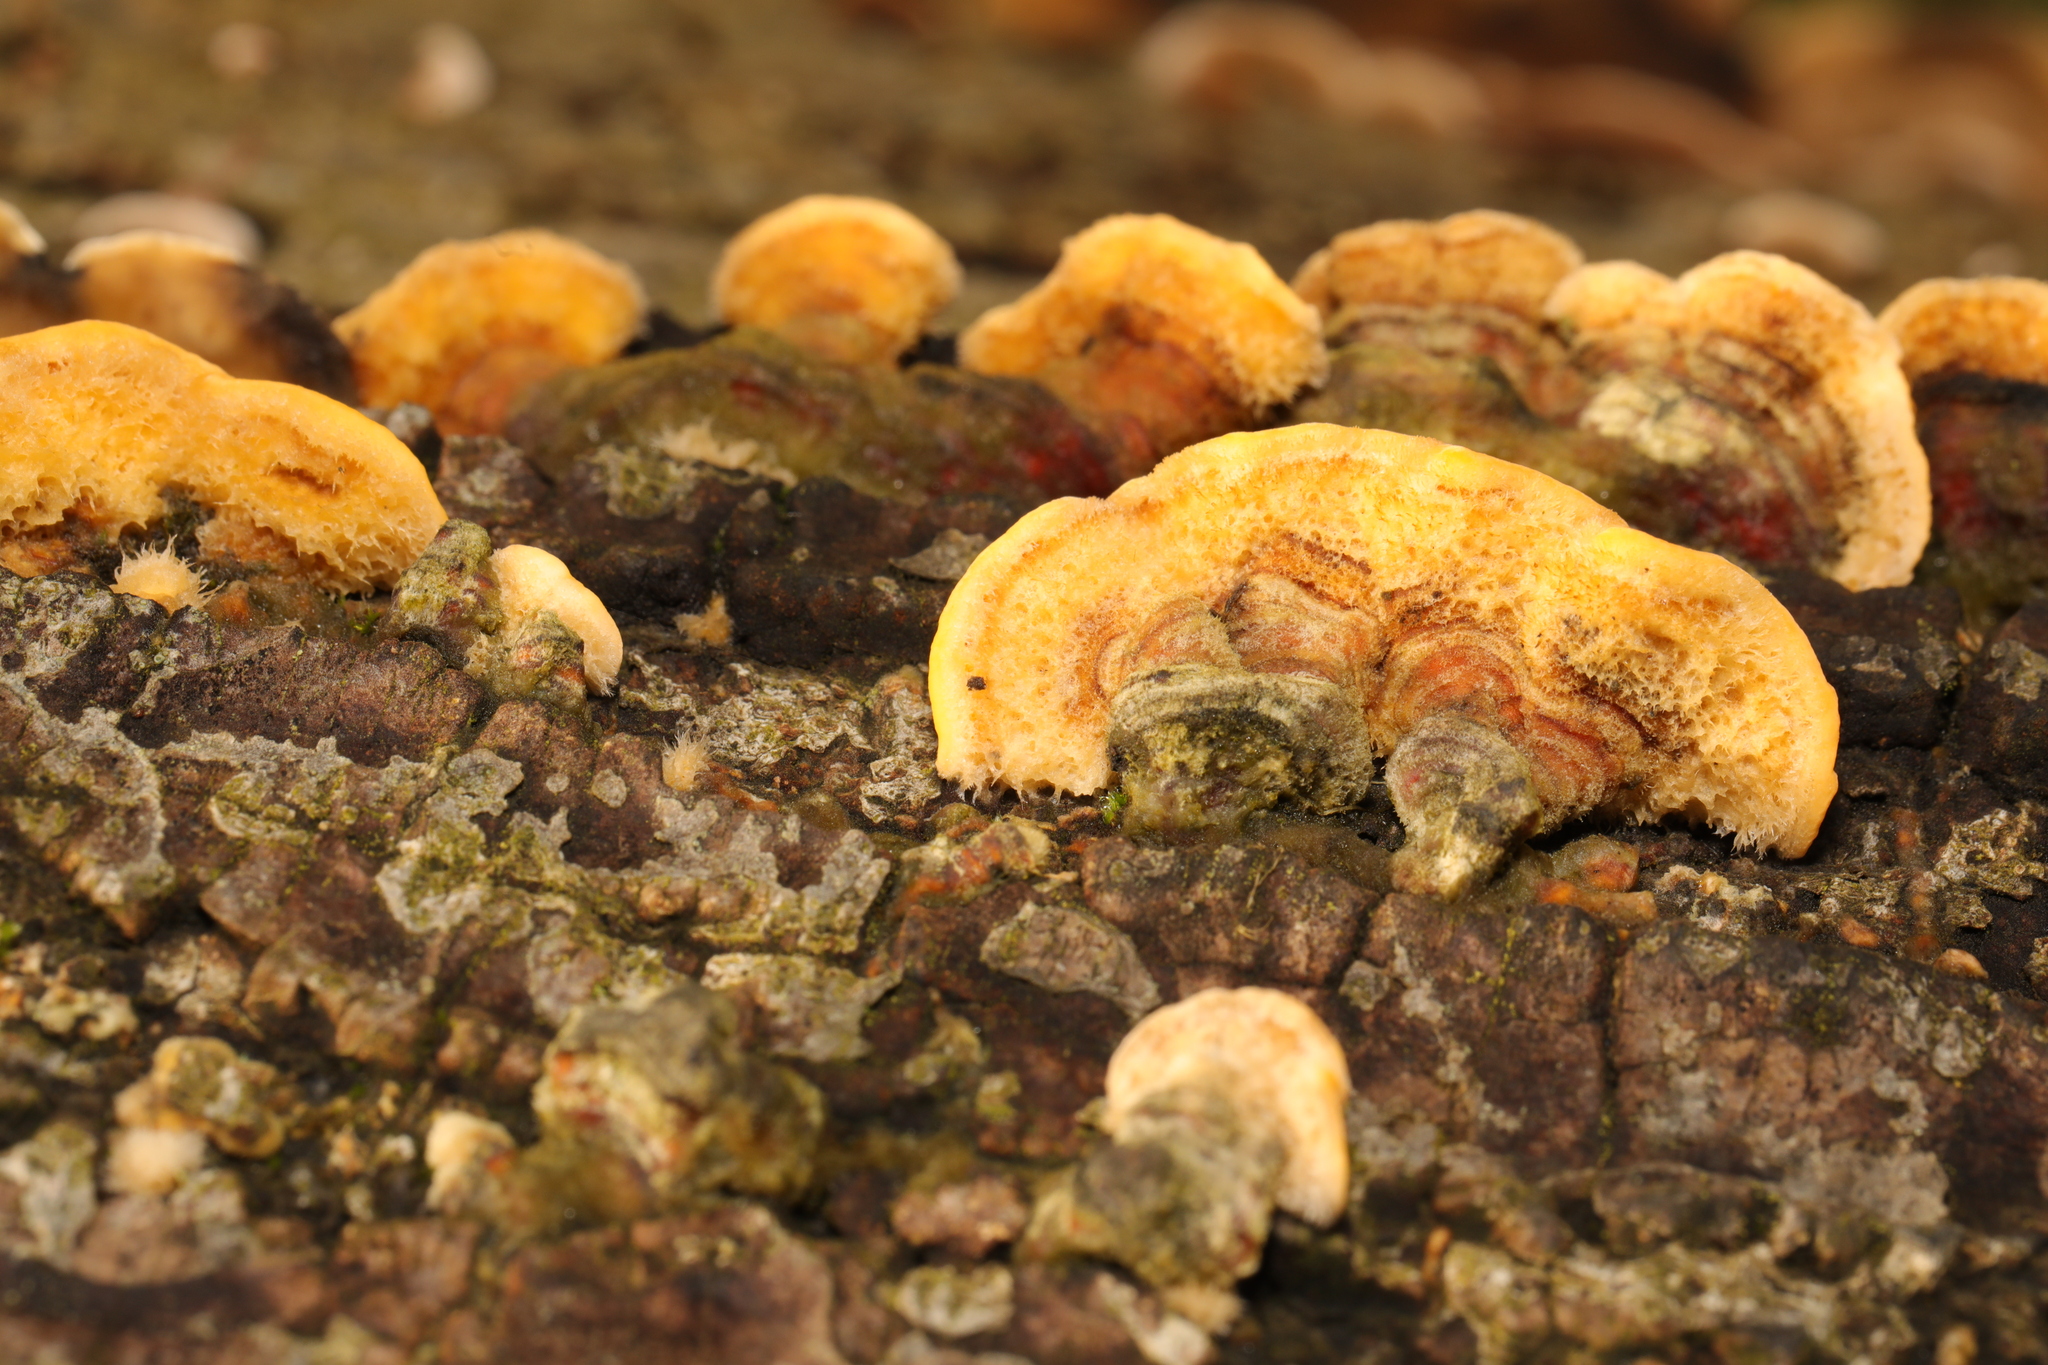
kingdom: Fungi
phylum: Basidiomycota
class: Agaricomycetes
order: Russulales
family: Stereaceae
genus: Stereum
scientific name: Stereum hirsutum
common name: Hairy curtain crust
